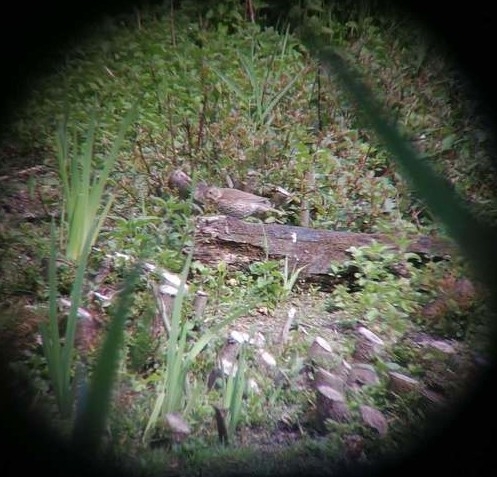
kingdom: Animalia
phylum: Chordata
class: Aves
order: Passeriformes
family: Turdidae
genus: Turdus
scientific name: Turdus philomelos
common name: Song thrush
